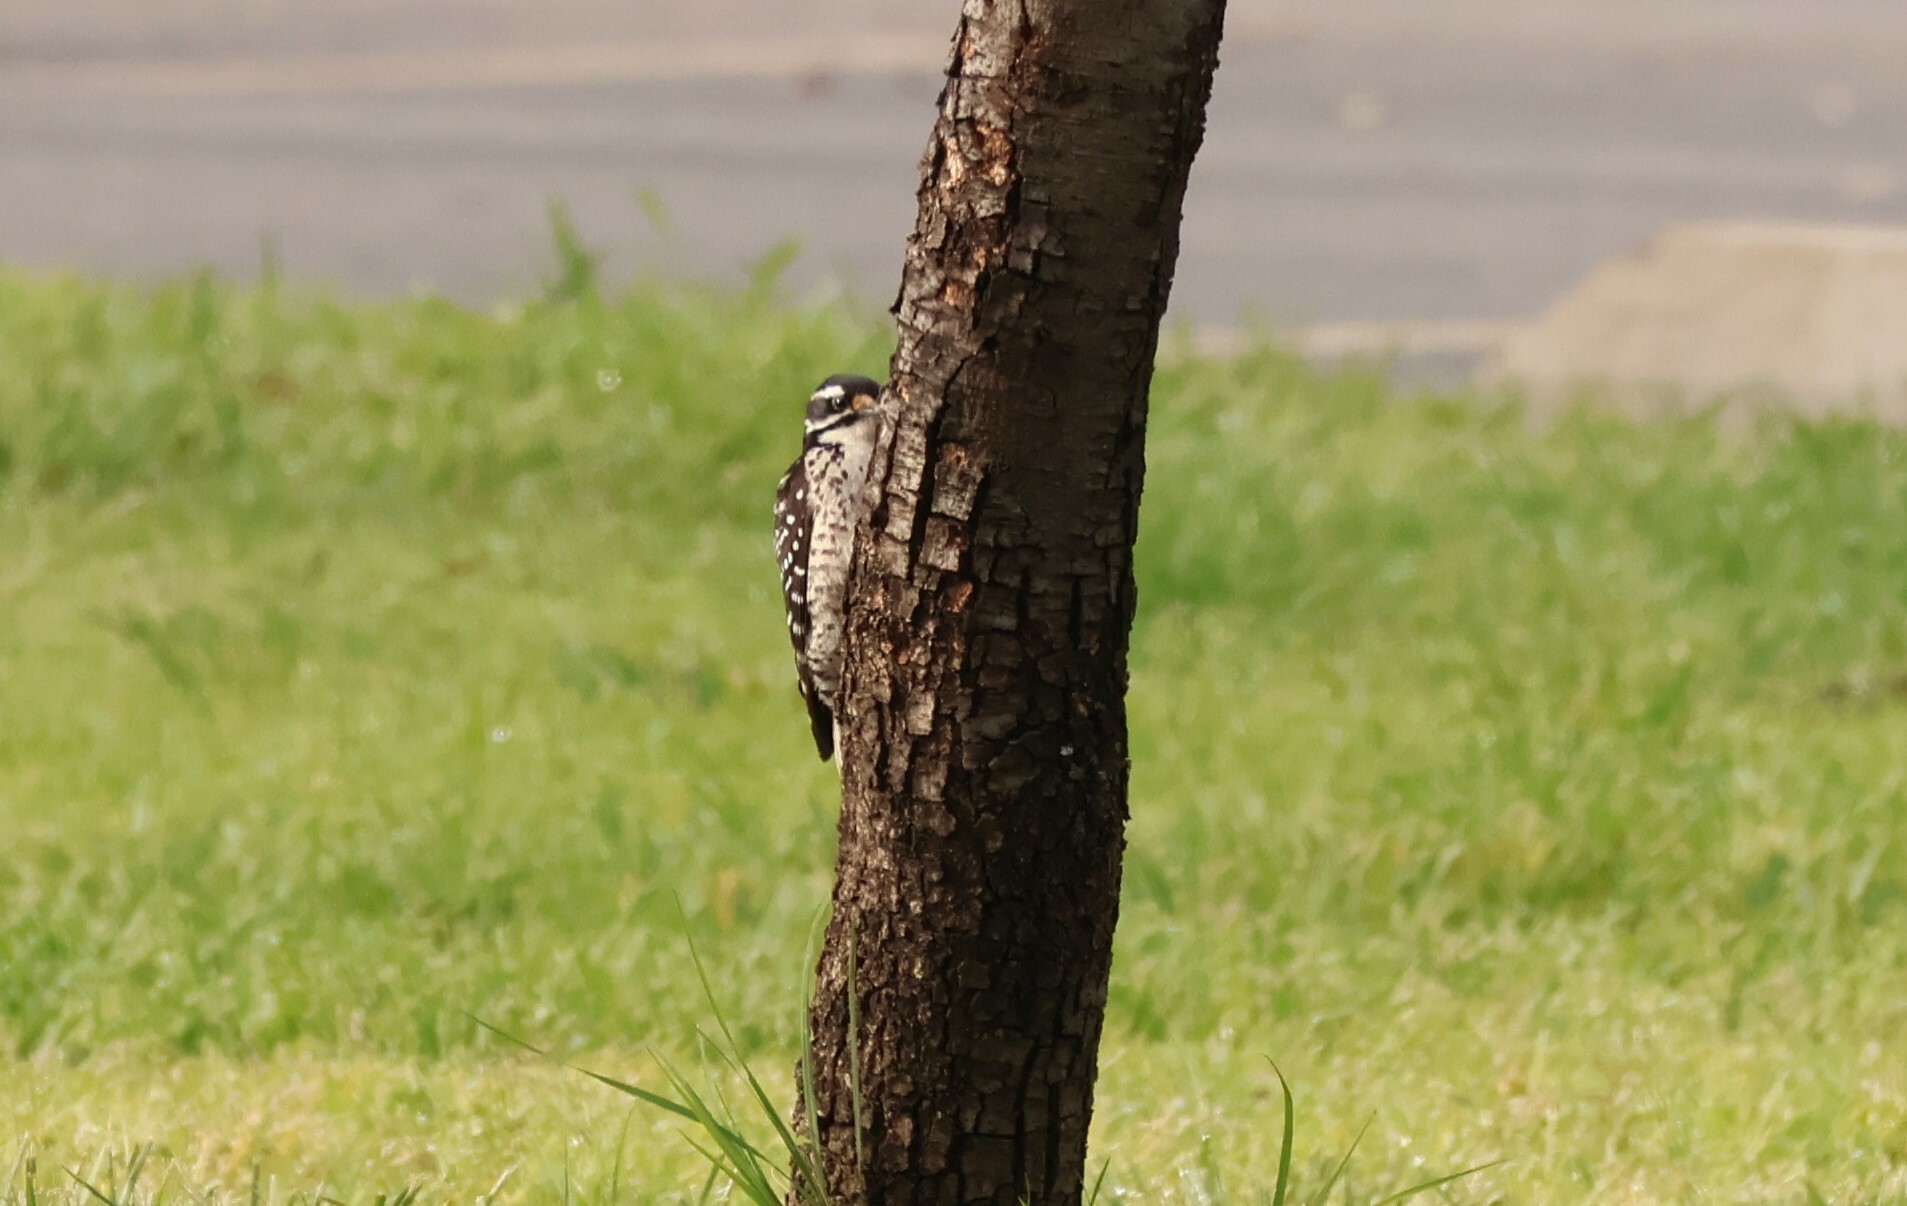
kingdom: Animalia
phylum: Chordata
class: Aves
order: Piciformes
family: Picidae
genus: Dryobates
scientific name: Dryobates nuttallii
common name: Nuttall's woodpecker
